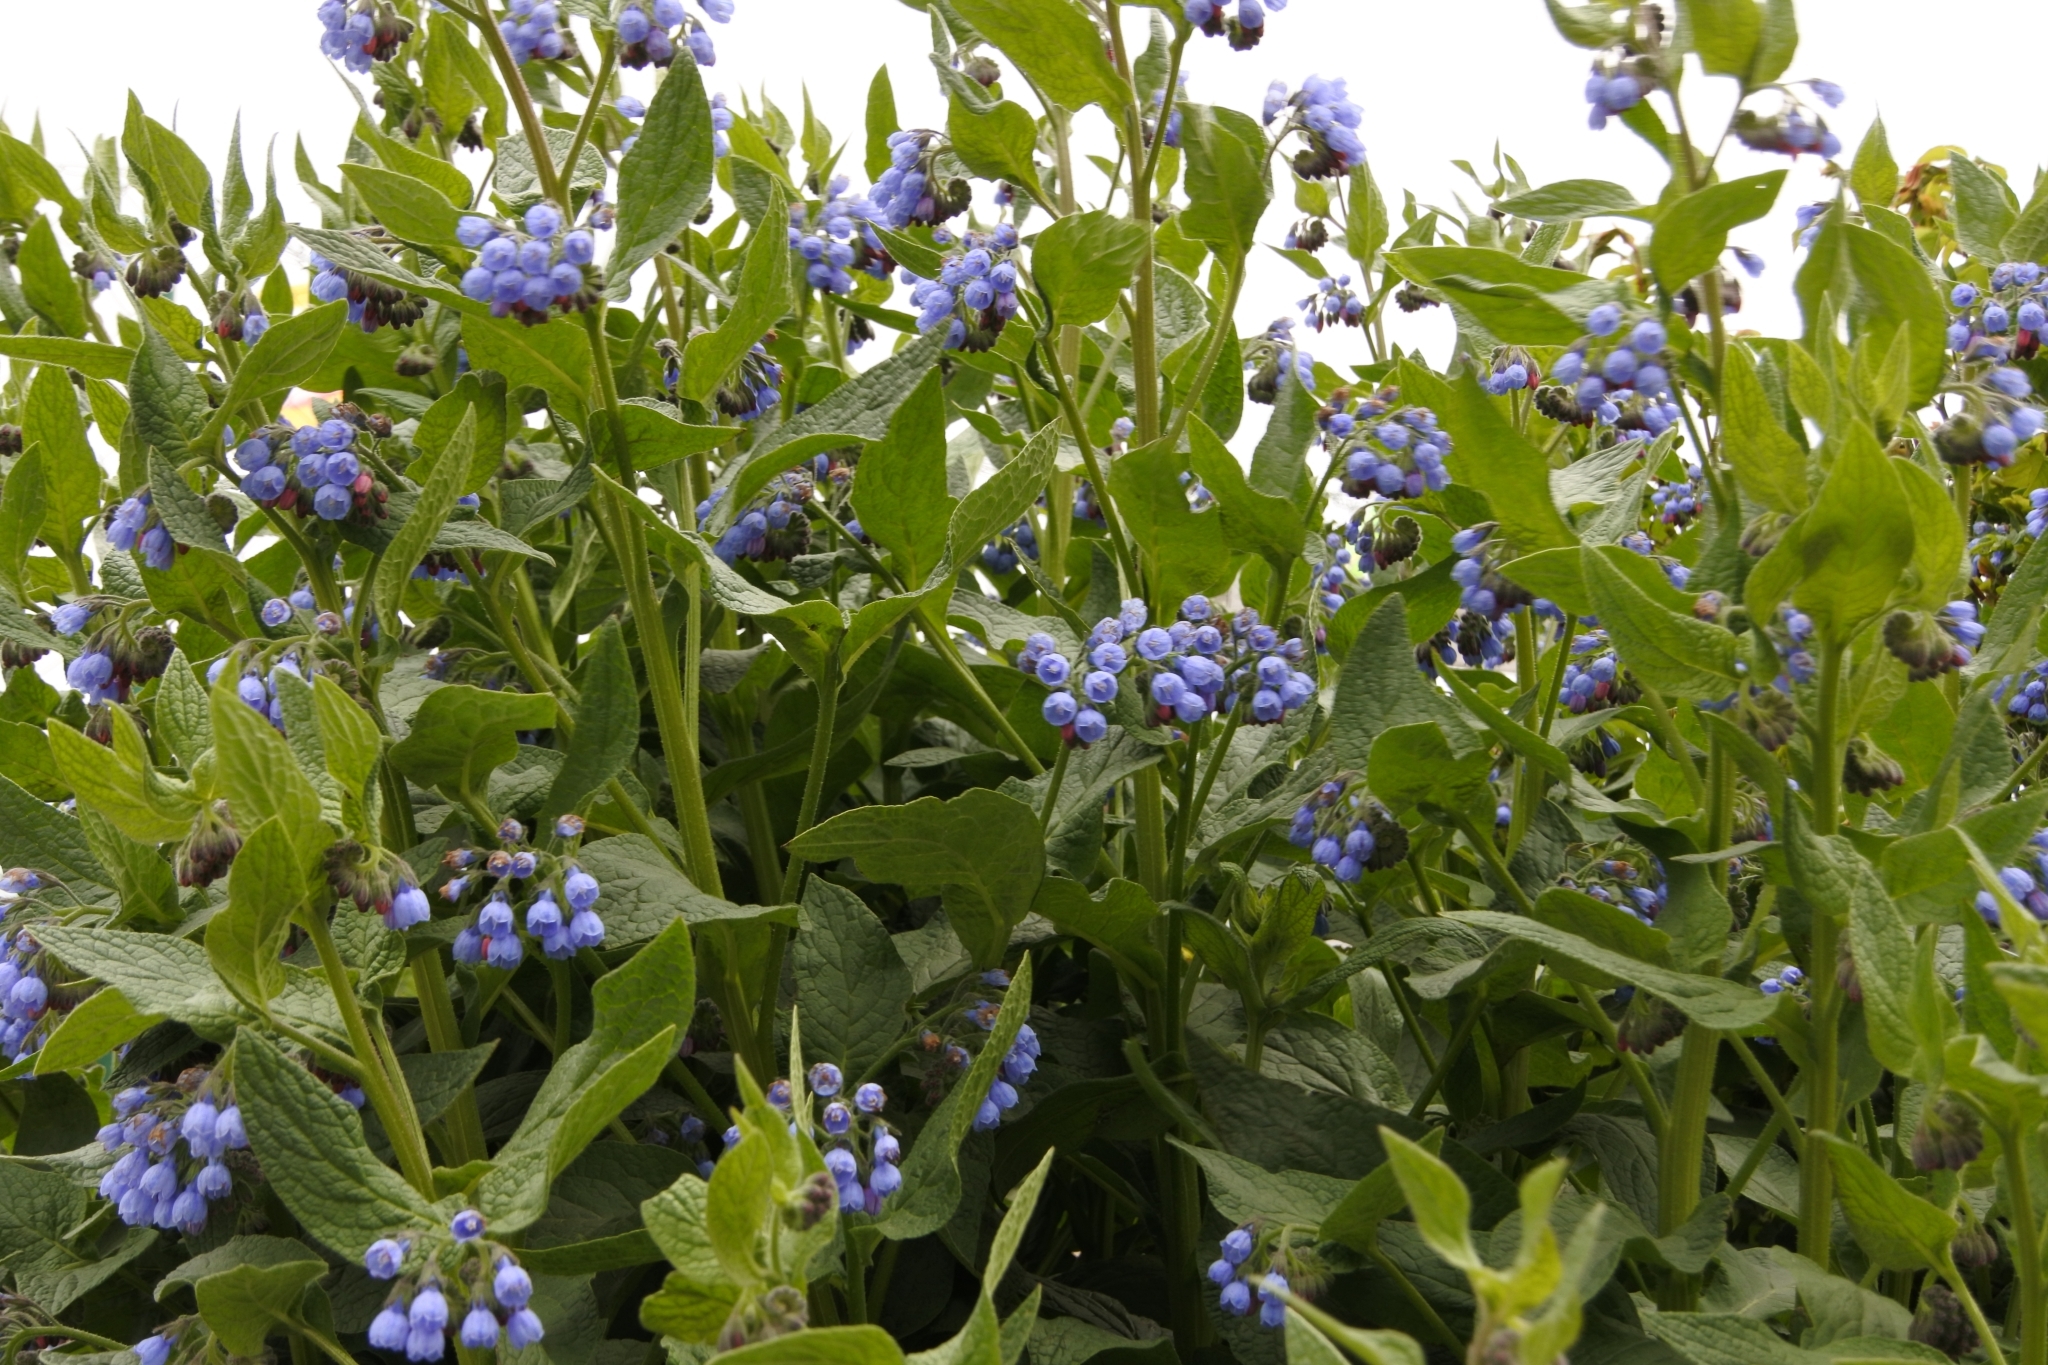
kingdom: Plantae
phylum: Tracheophyta
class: Magnoliopsida
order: Boraginales
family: Boraginaceae
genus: Symphytum
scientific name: Symphytum caucasicum
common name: Caucasian comfrey
